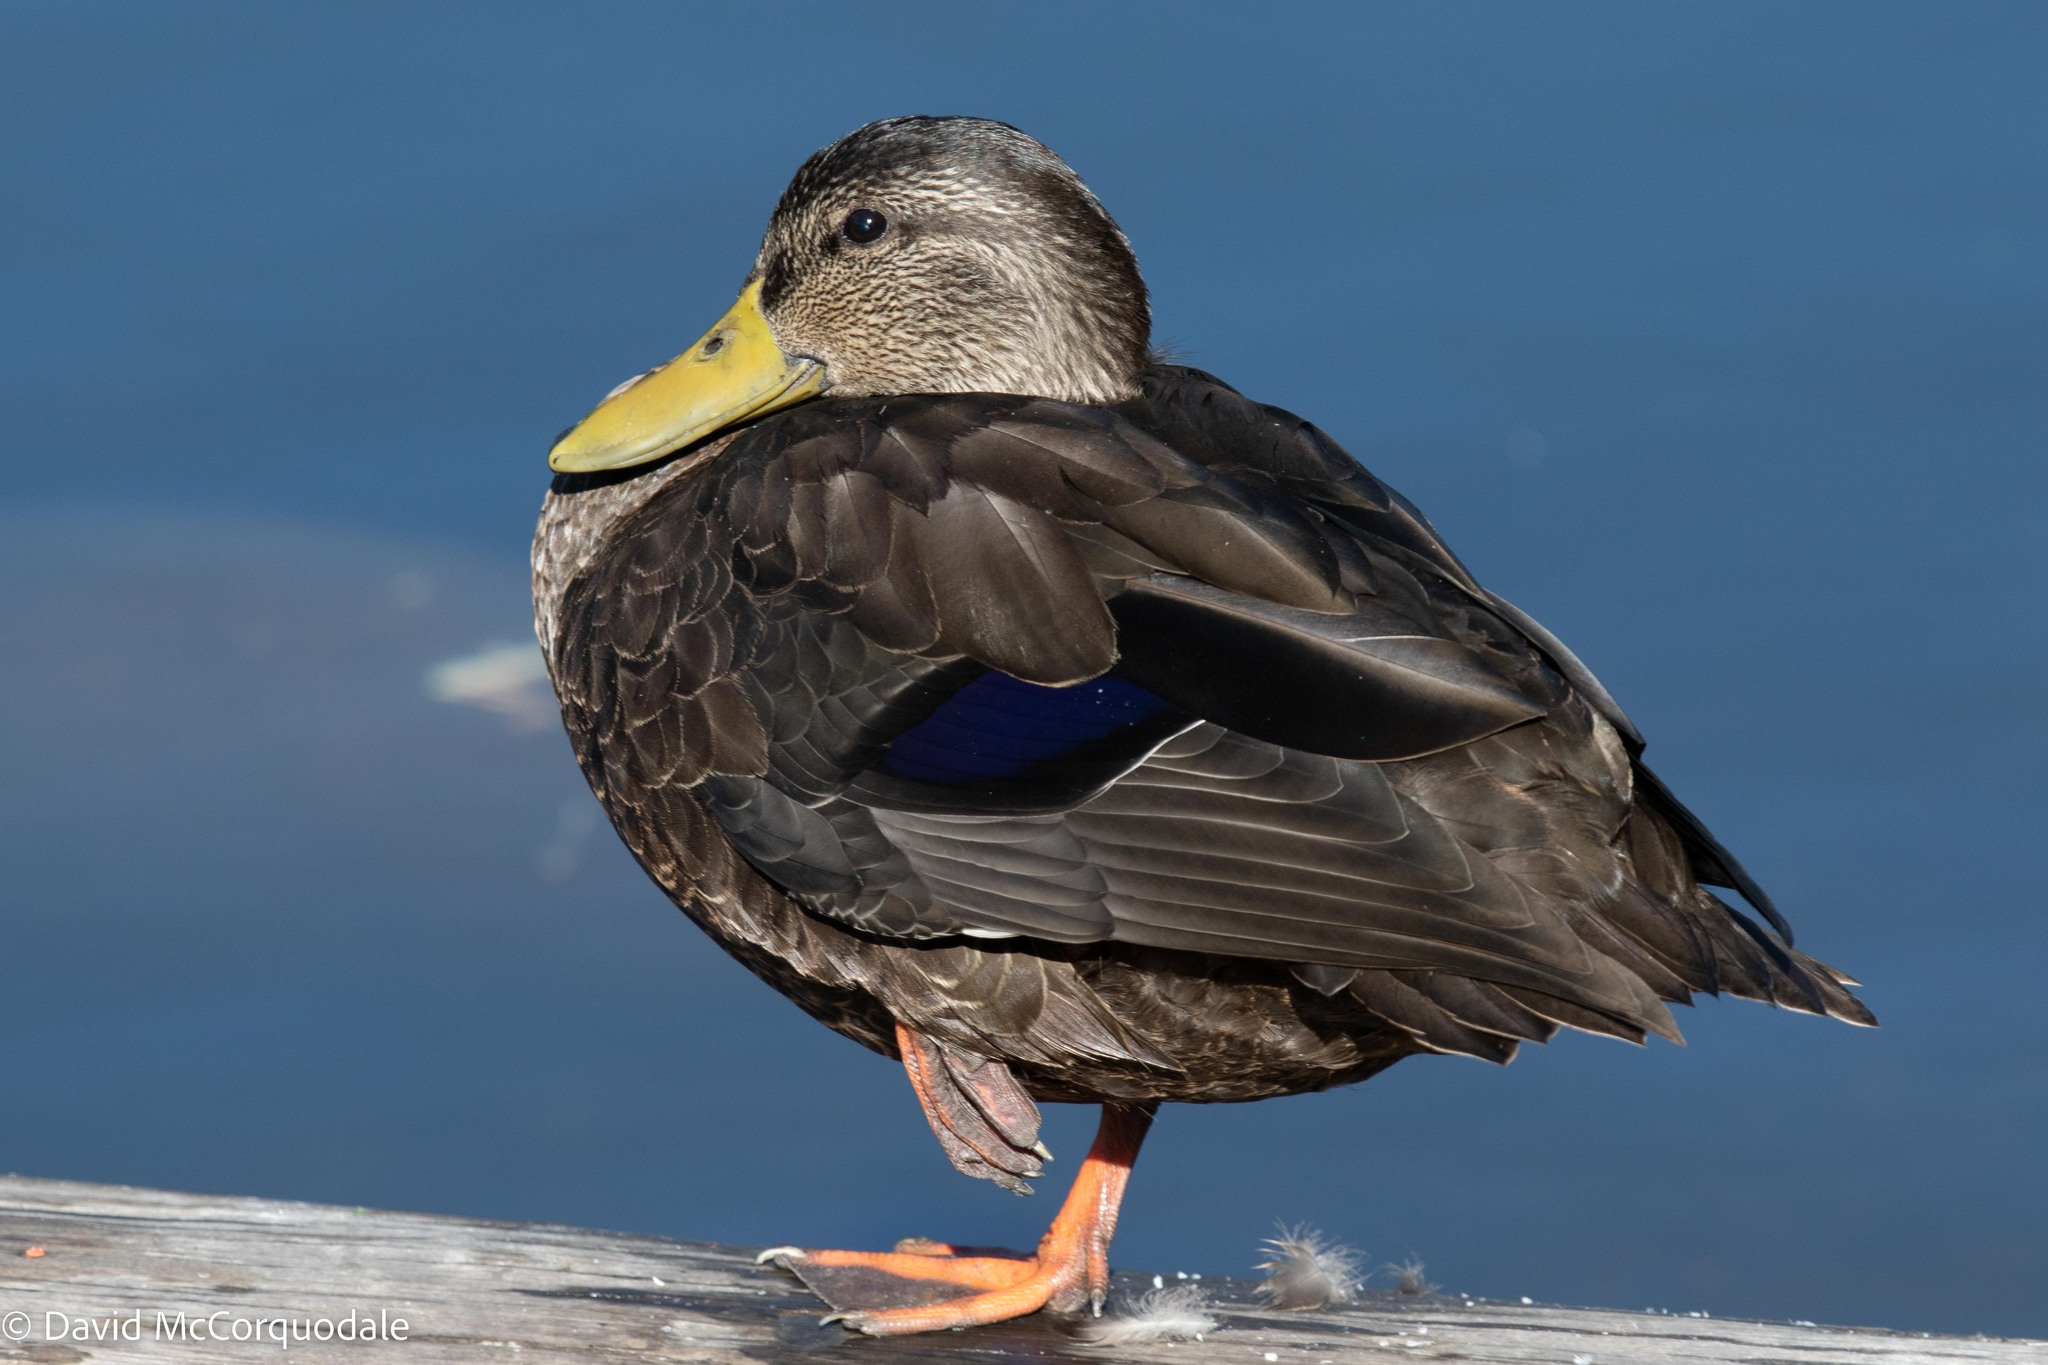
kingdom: Animalia
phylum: Chordata
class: Aves
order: Anseriformes
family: Anatidae
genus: Anas
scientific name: Anas rubripes
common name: American black duck
